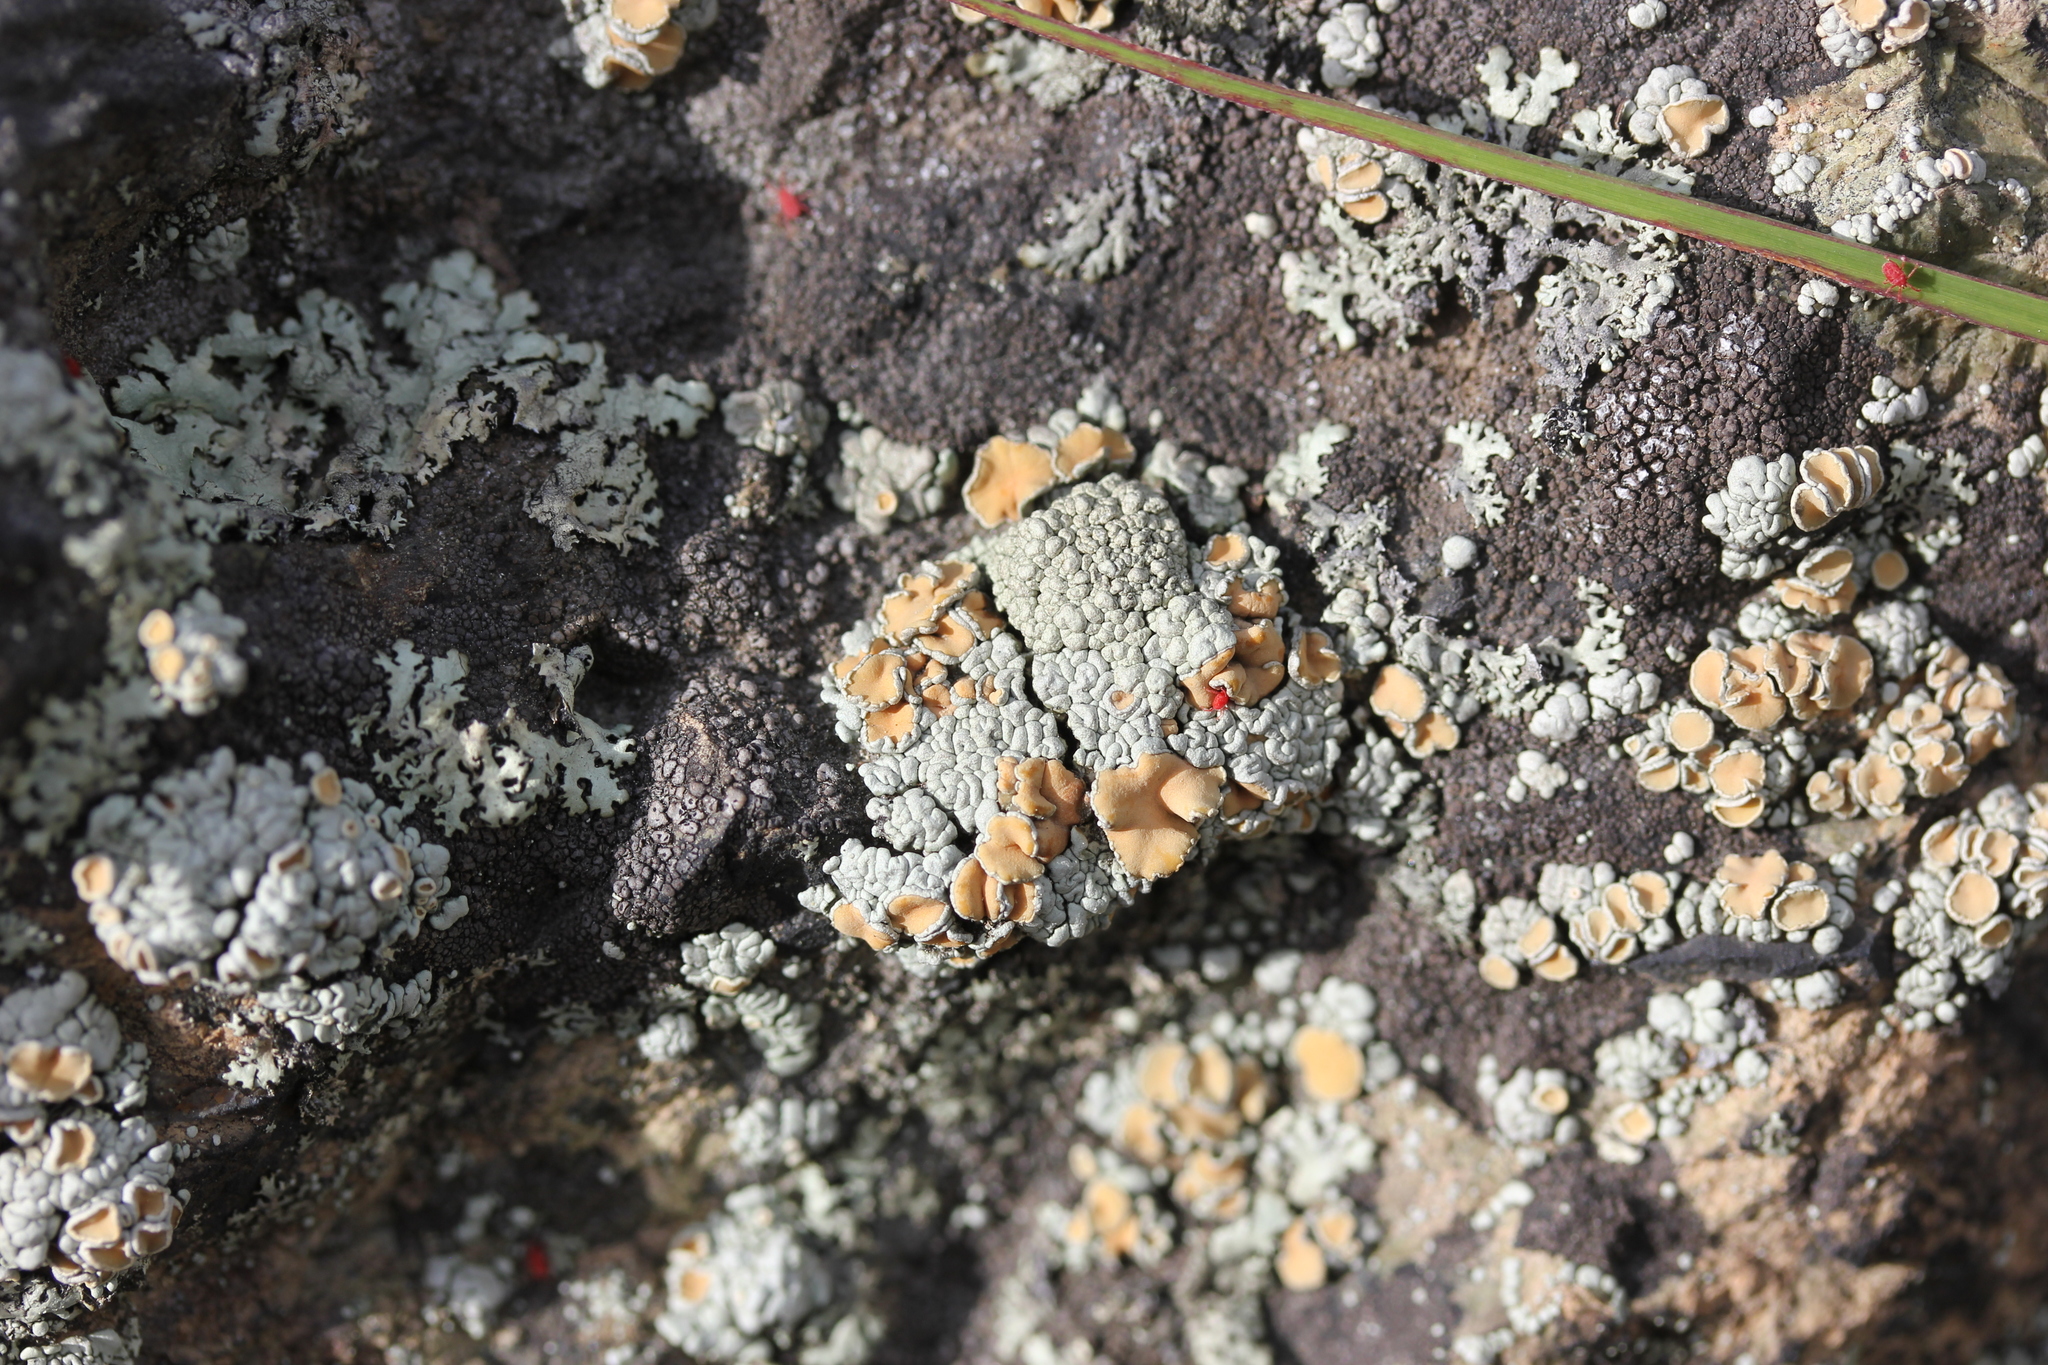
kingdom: Fungi
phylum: Ascomycota
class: Lecanoromycetes
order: Lecanorales
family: Lecanoraceae
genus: Sedelnikovaea
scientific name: Sedelnikovaea subdiscrepans
